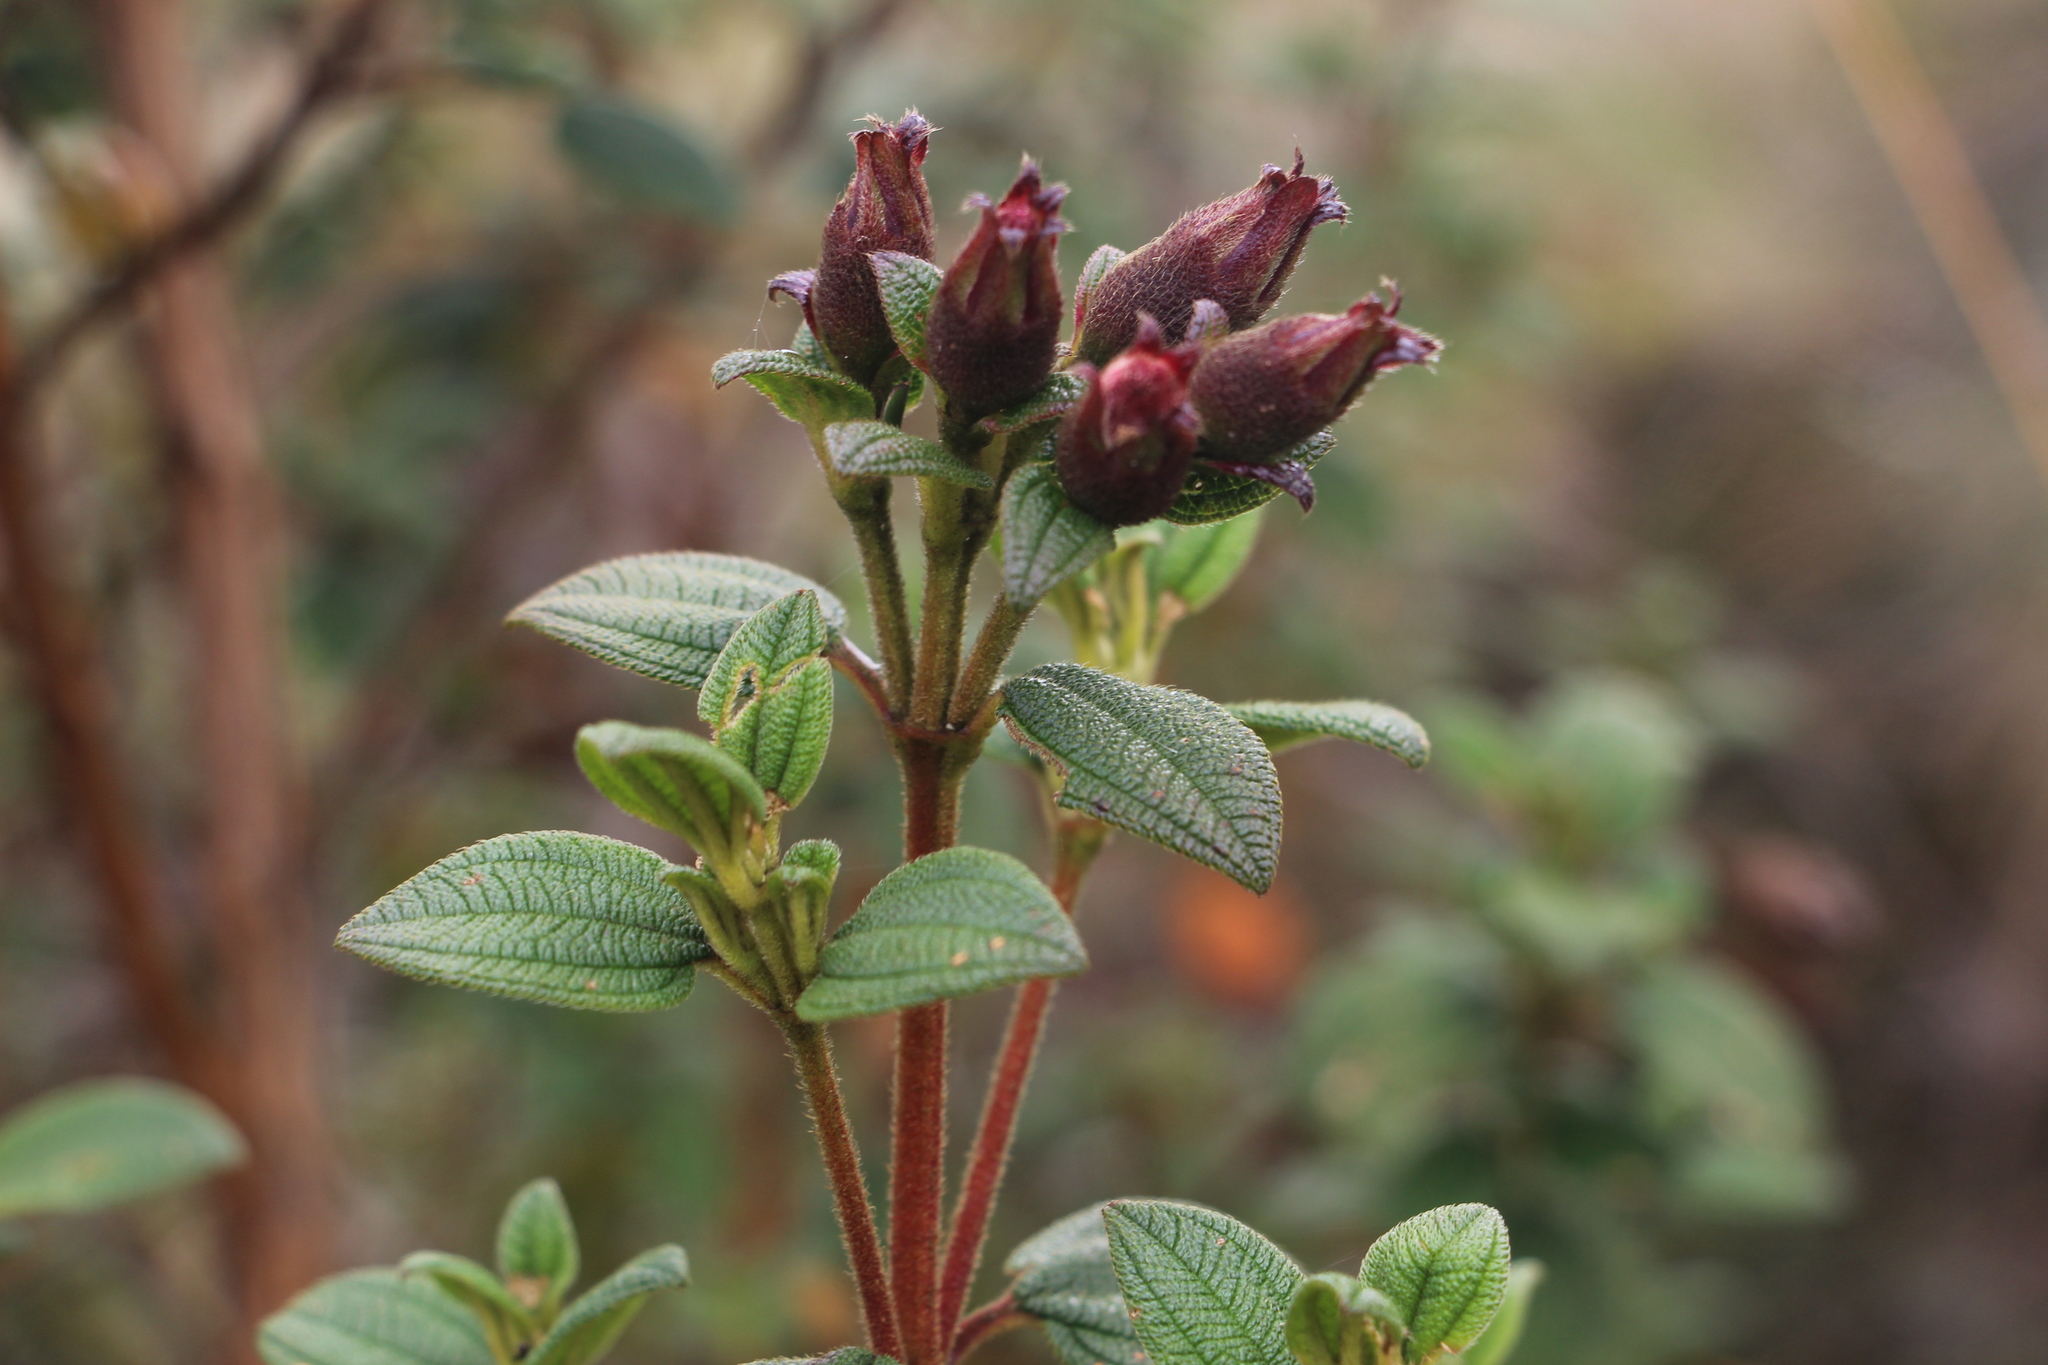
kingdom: Plantae
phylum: Tracheophyta
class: Magnoliopsida
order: Myrtales
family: Melastomataceae
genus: Chaetogastra
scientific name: Chaetogastra grossa
